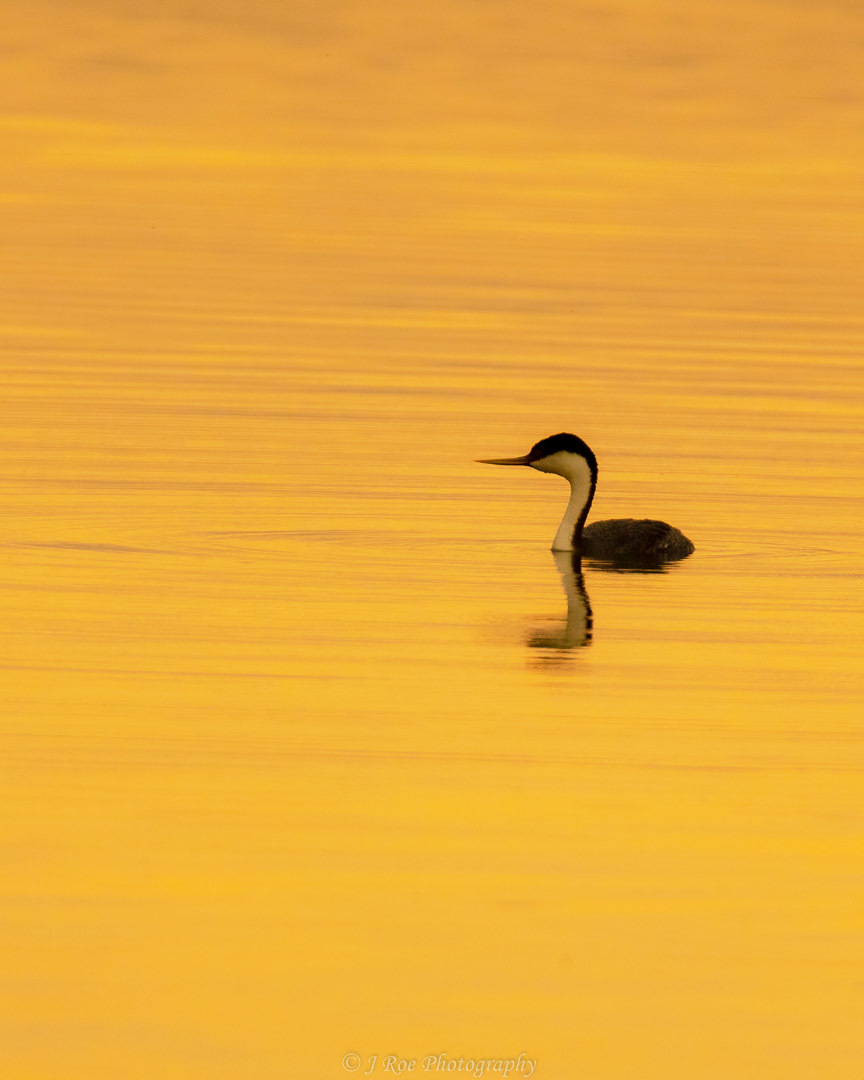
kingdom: Animalia
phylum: Chordata
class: Aves
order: Podicipediformes
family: Podicipedidae
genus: Aechmophorus
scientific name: Aechmophorus occidentalis
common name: Western grebe
